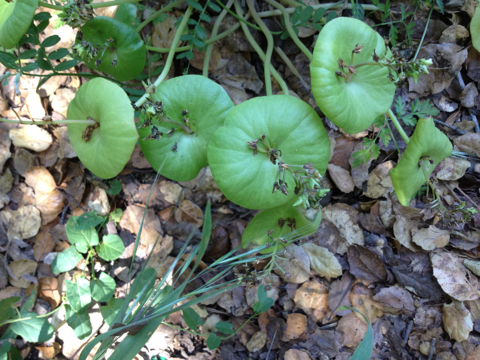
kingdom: Plantae
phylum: Tracheophyta
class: Magnoliopsida
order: Caryophyllales
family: Montiaceae
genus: Claytonia
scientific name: Claytonia perfoliata
